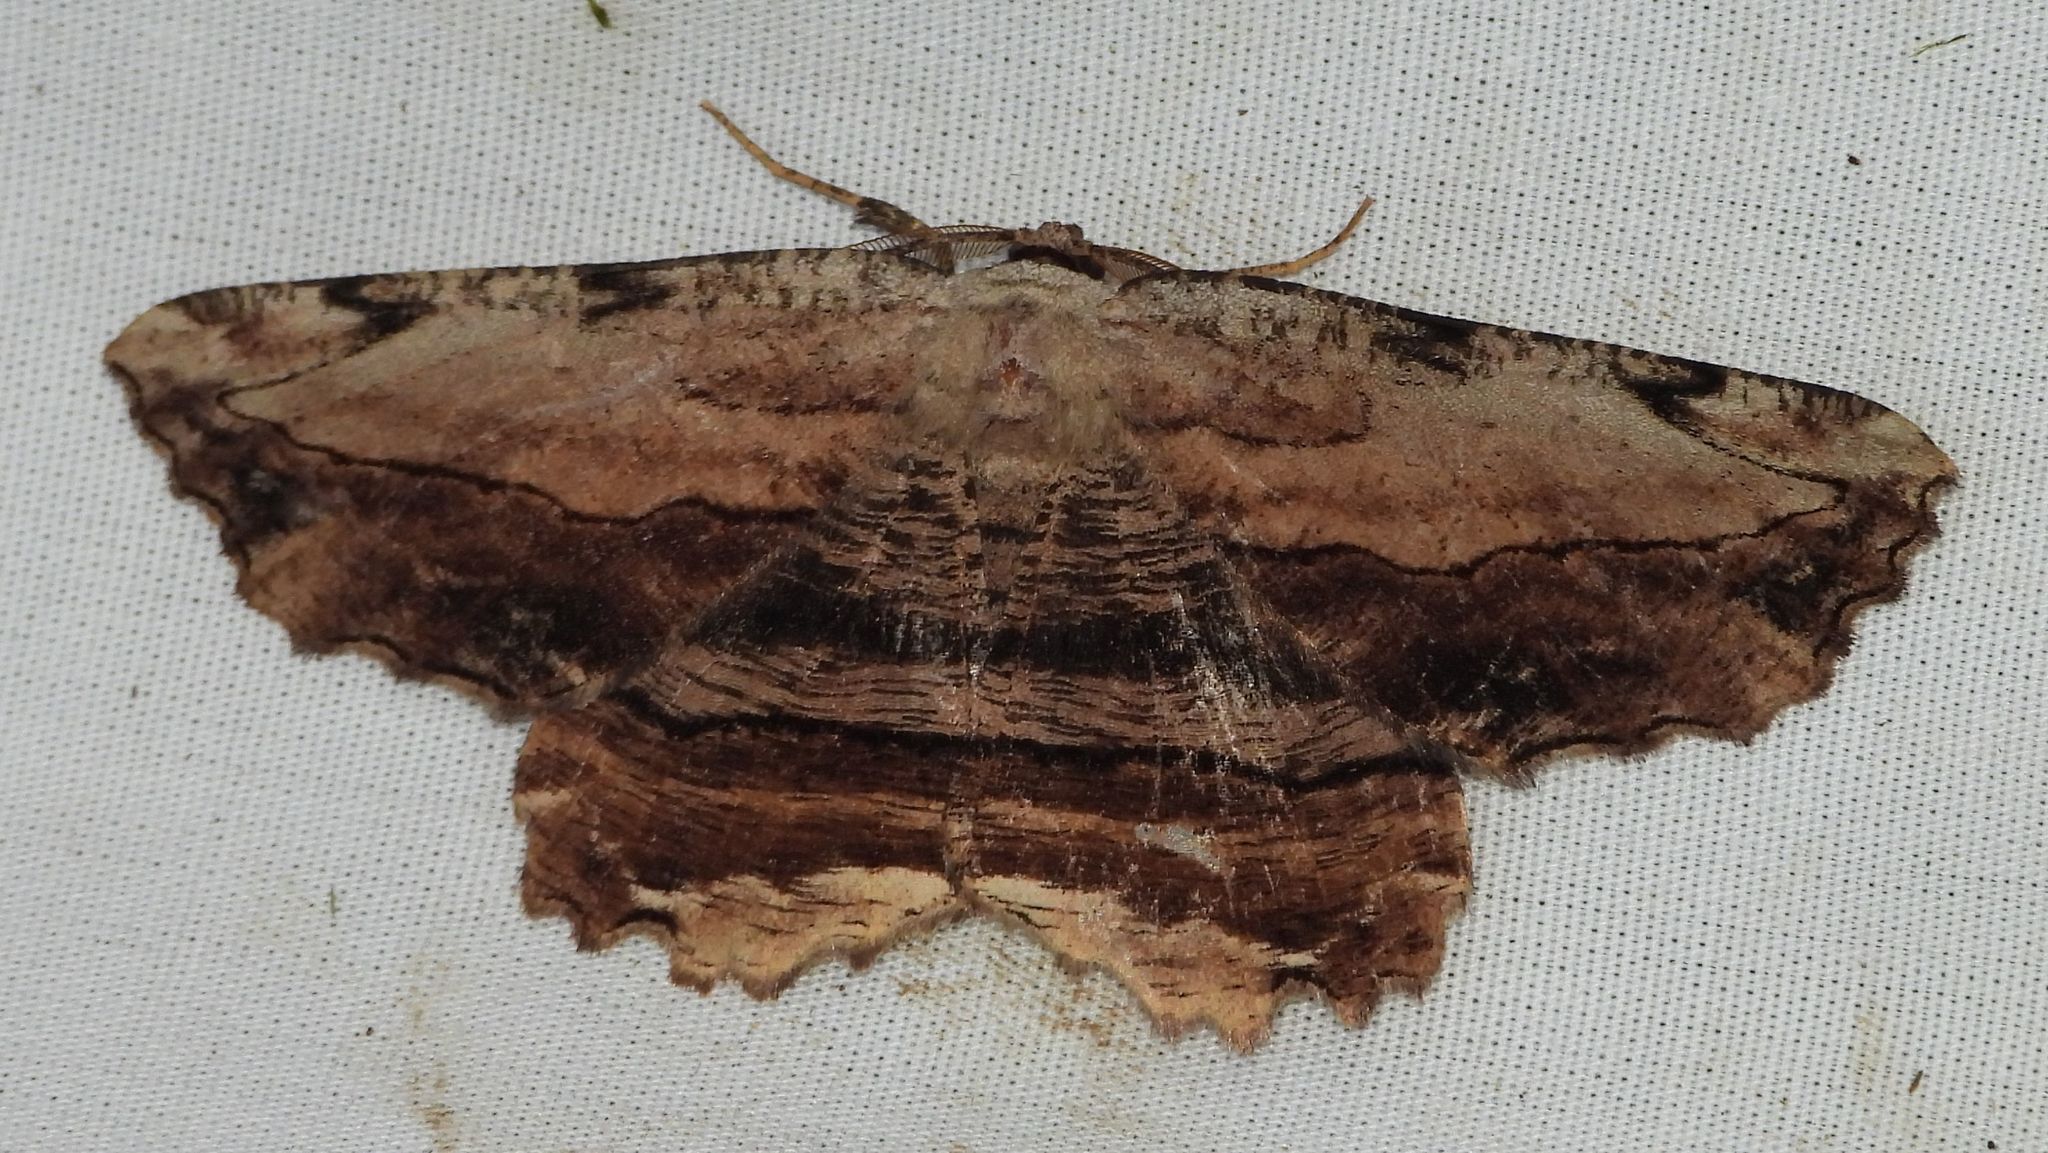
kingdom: Animalia
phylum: Arthropoda
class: Insecta
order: Lepidoptera
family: Geometridae
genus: Lytrosis
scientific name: Lytrosis unitaria
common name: Common lytrosis
